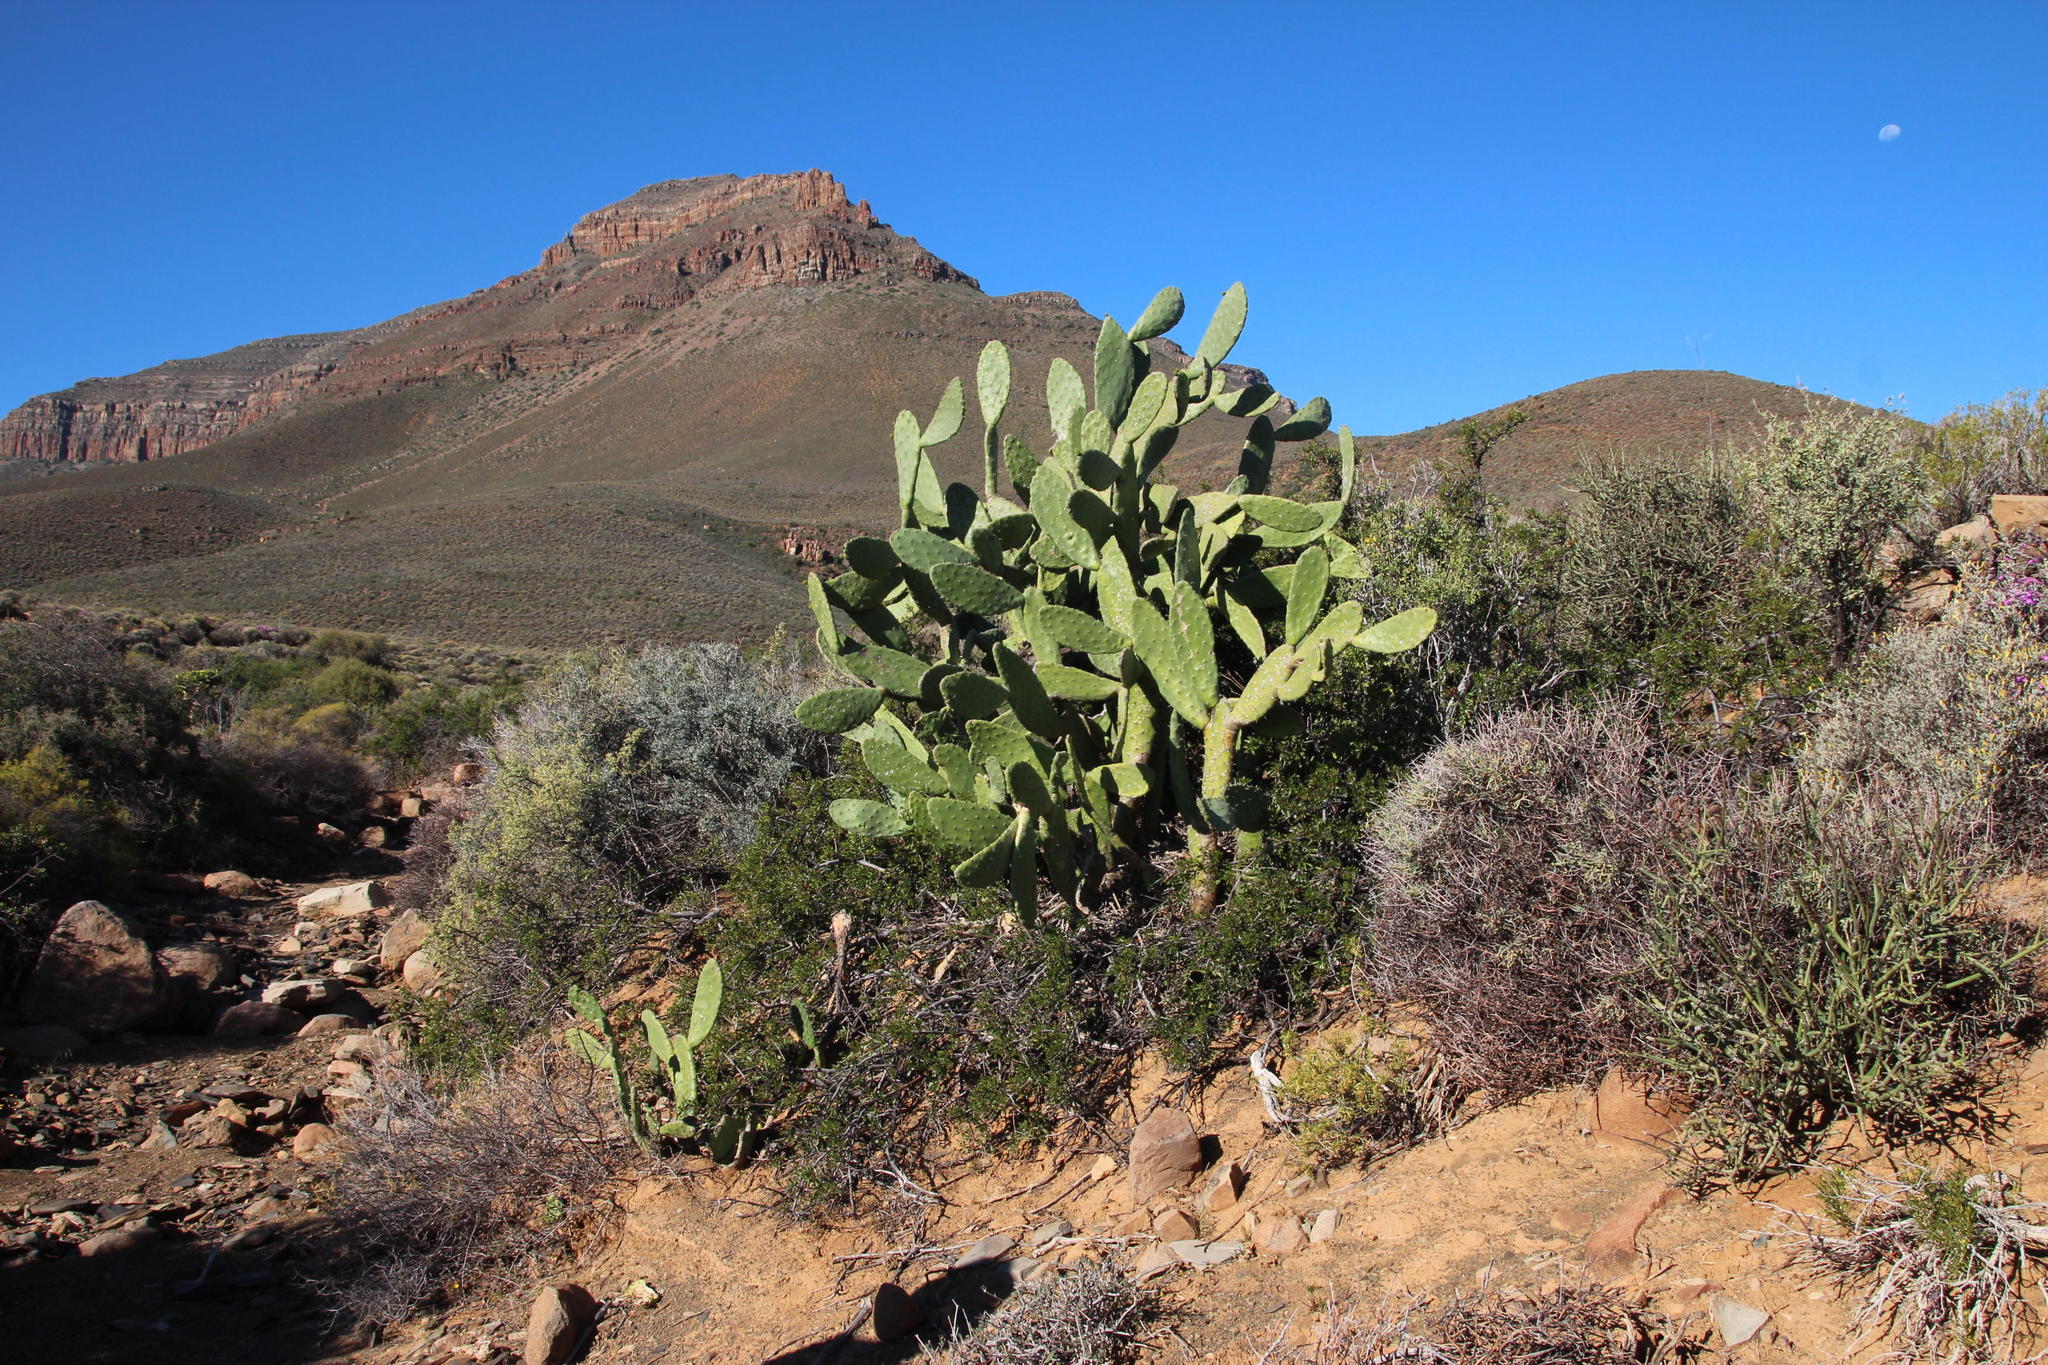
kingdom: Plantae
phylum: Tracheophyta
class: Magnoliopsida
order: Caryophyllales
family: Cactaceae
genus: Opuntia
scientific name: Opuntia ficus-indica
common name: Barbary fig
